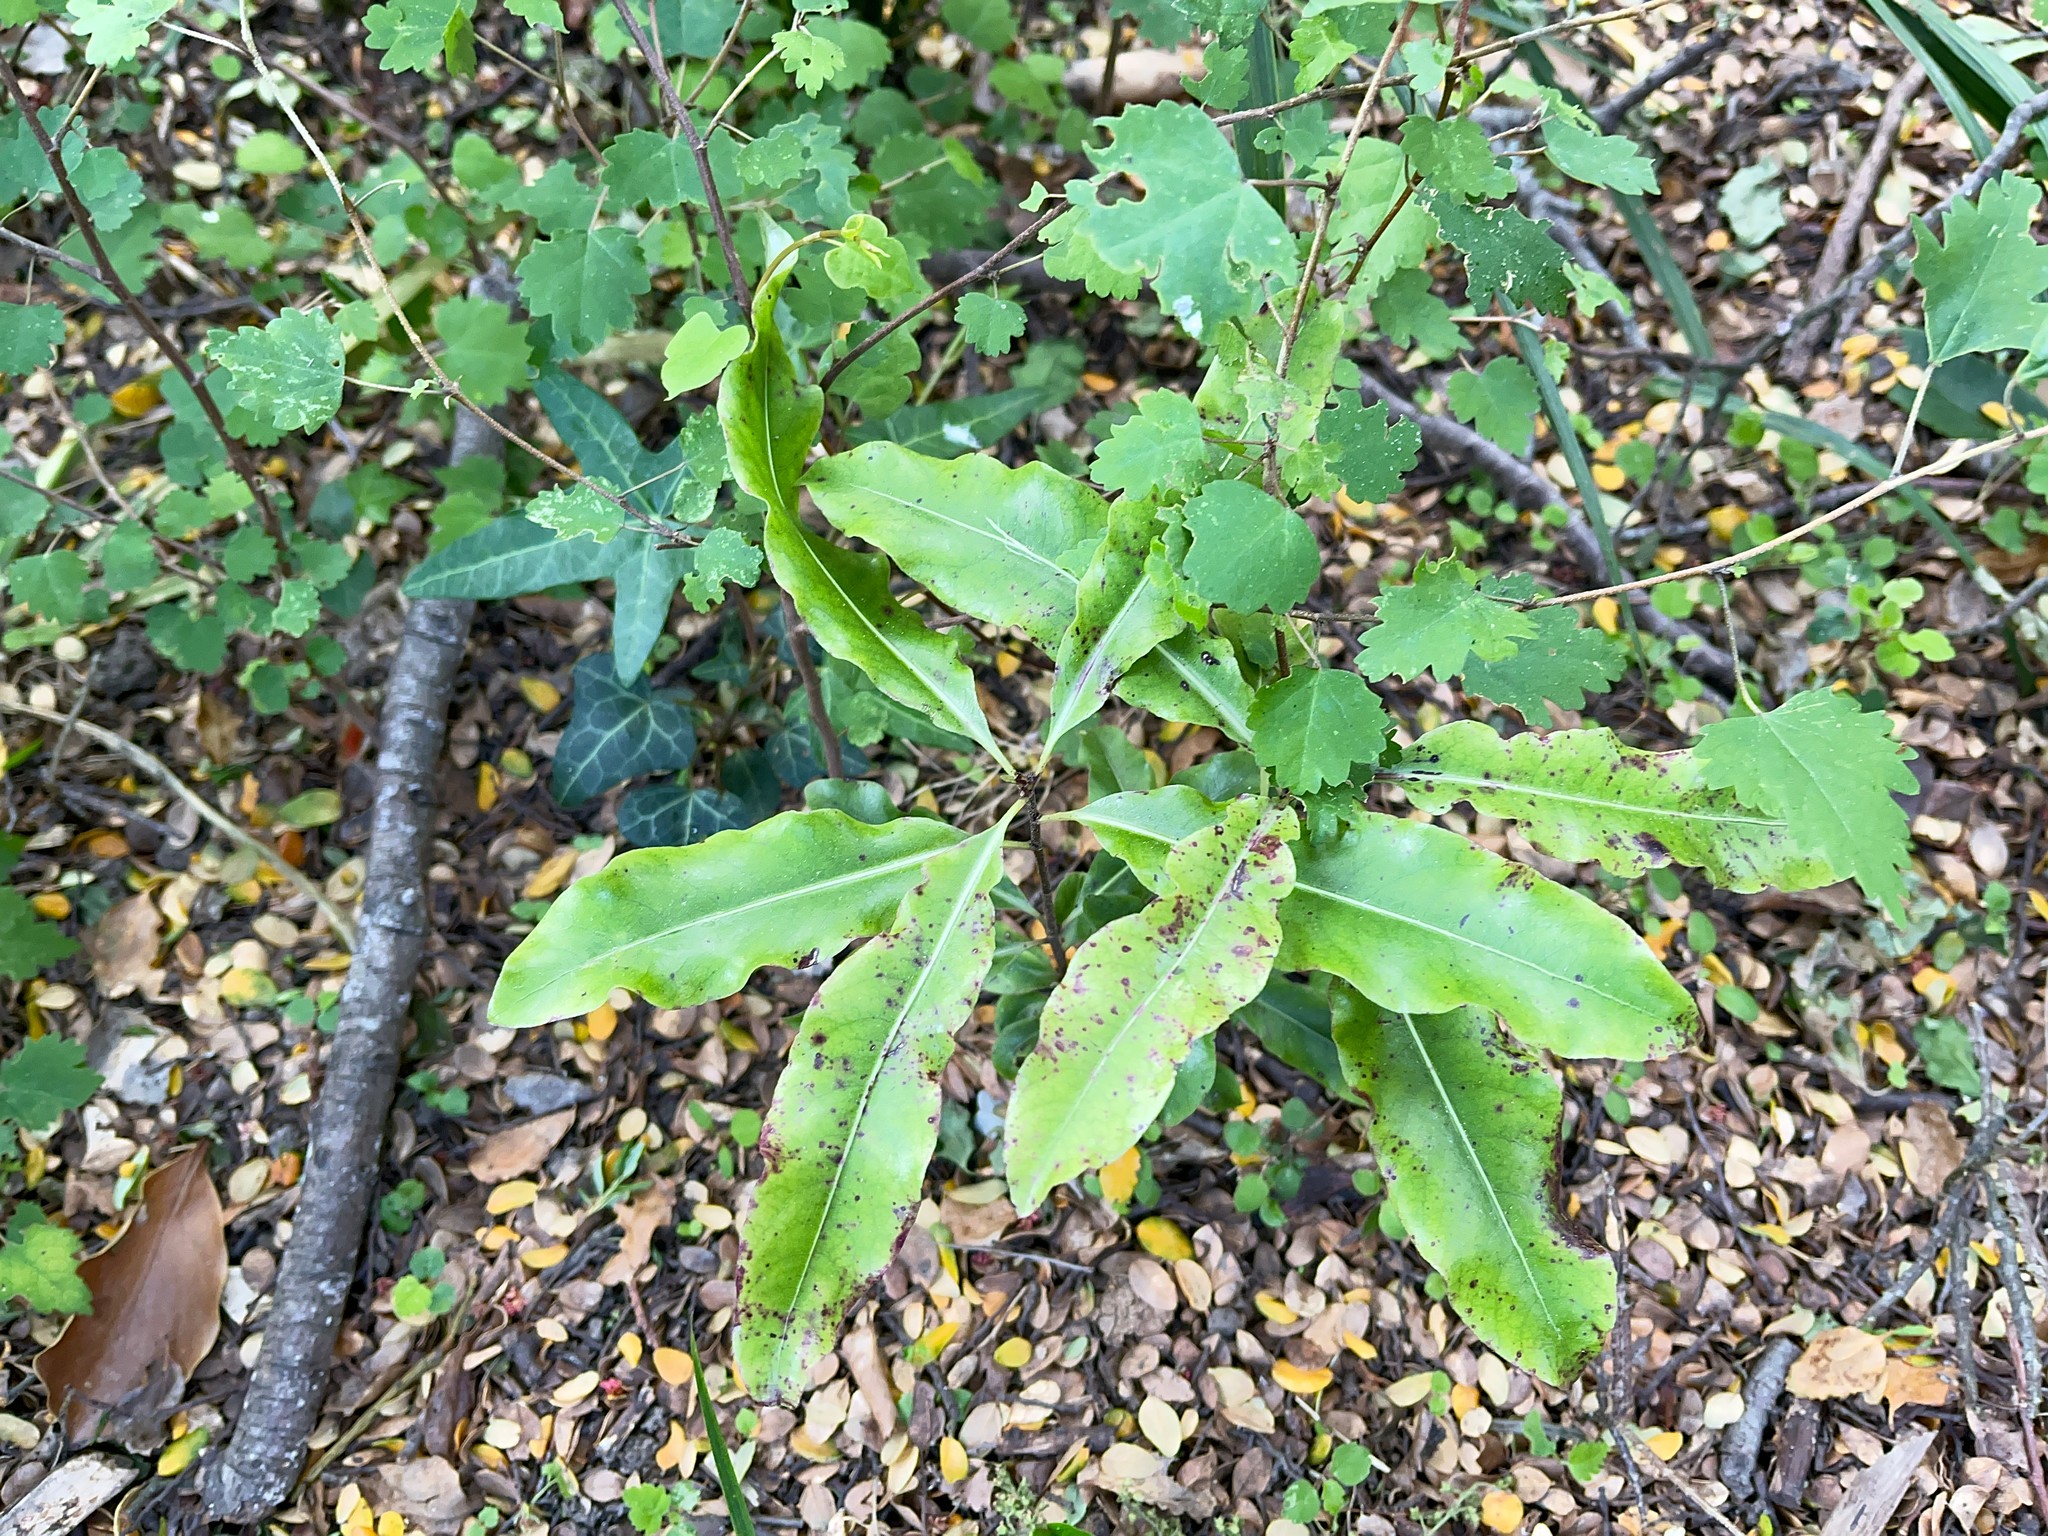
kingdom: Plantae
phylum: Tracheophyta
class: Magnoliopsida
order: Apiales
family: Pittosporaceae
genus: Pittosporum
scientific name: Pittosporum eugenioides
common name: Lemonwood
